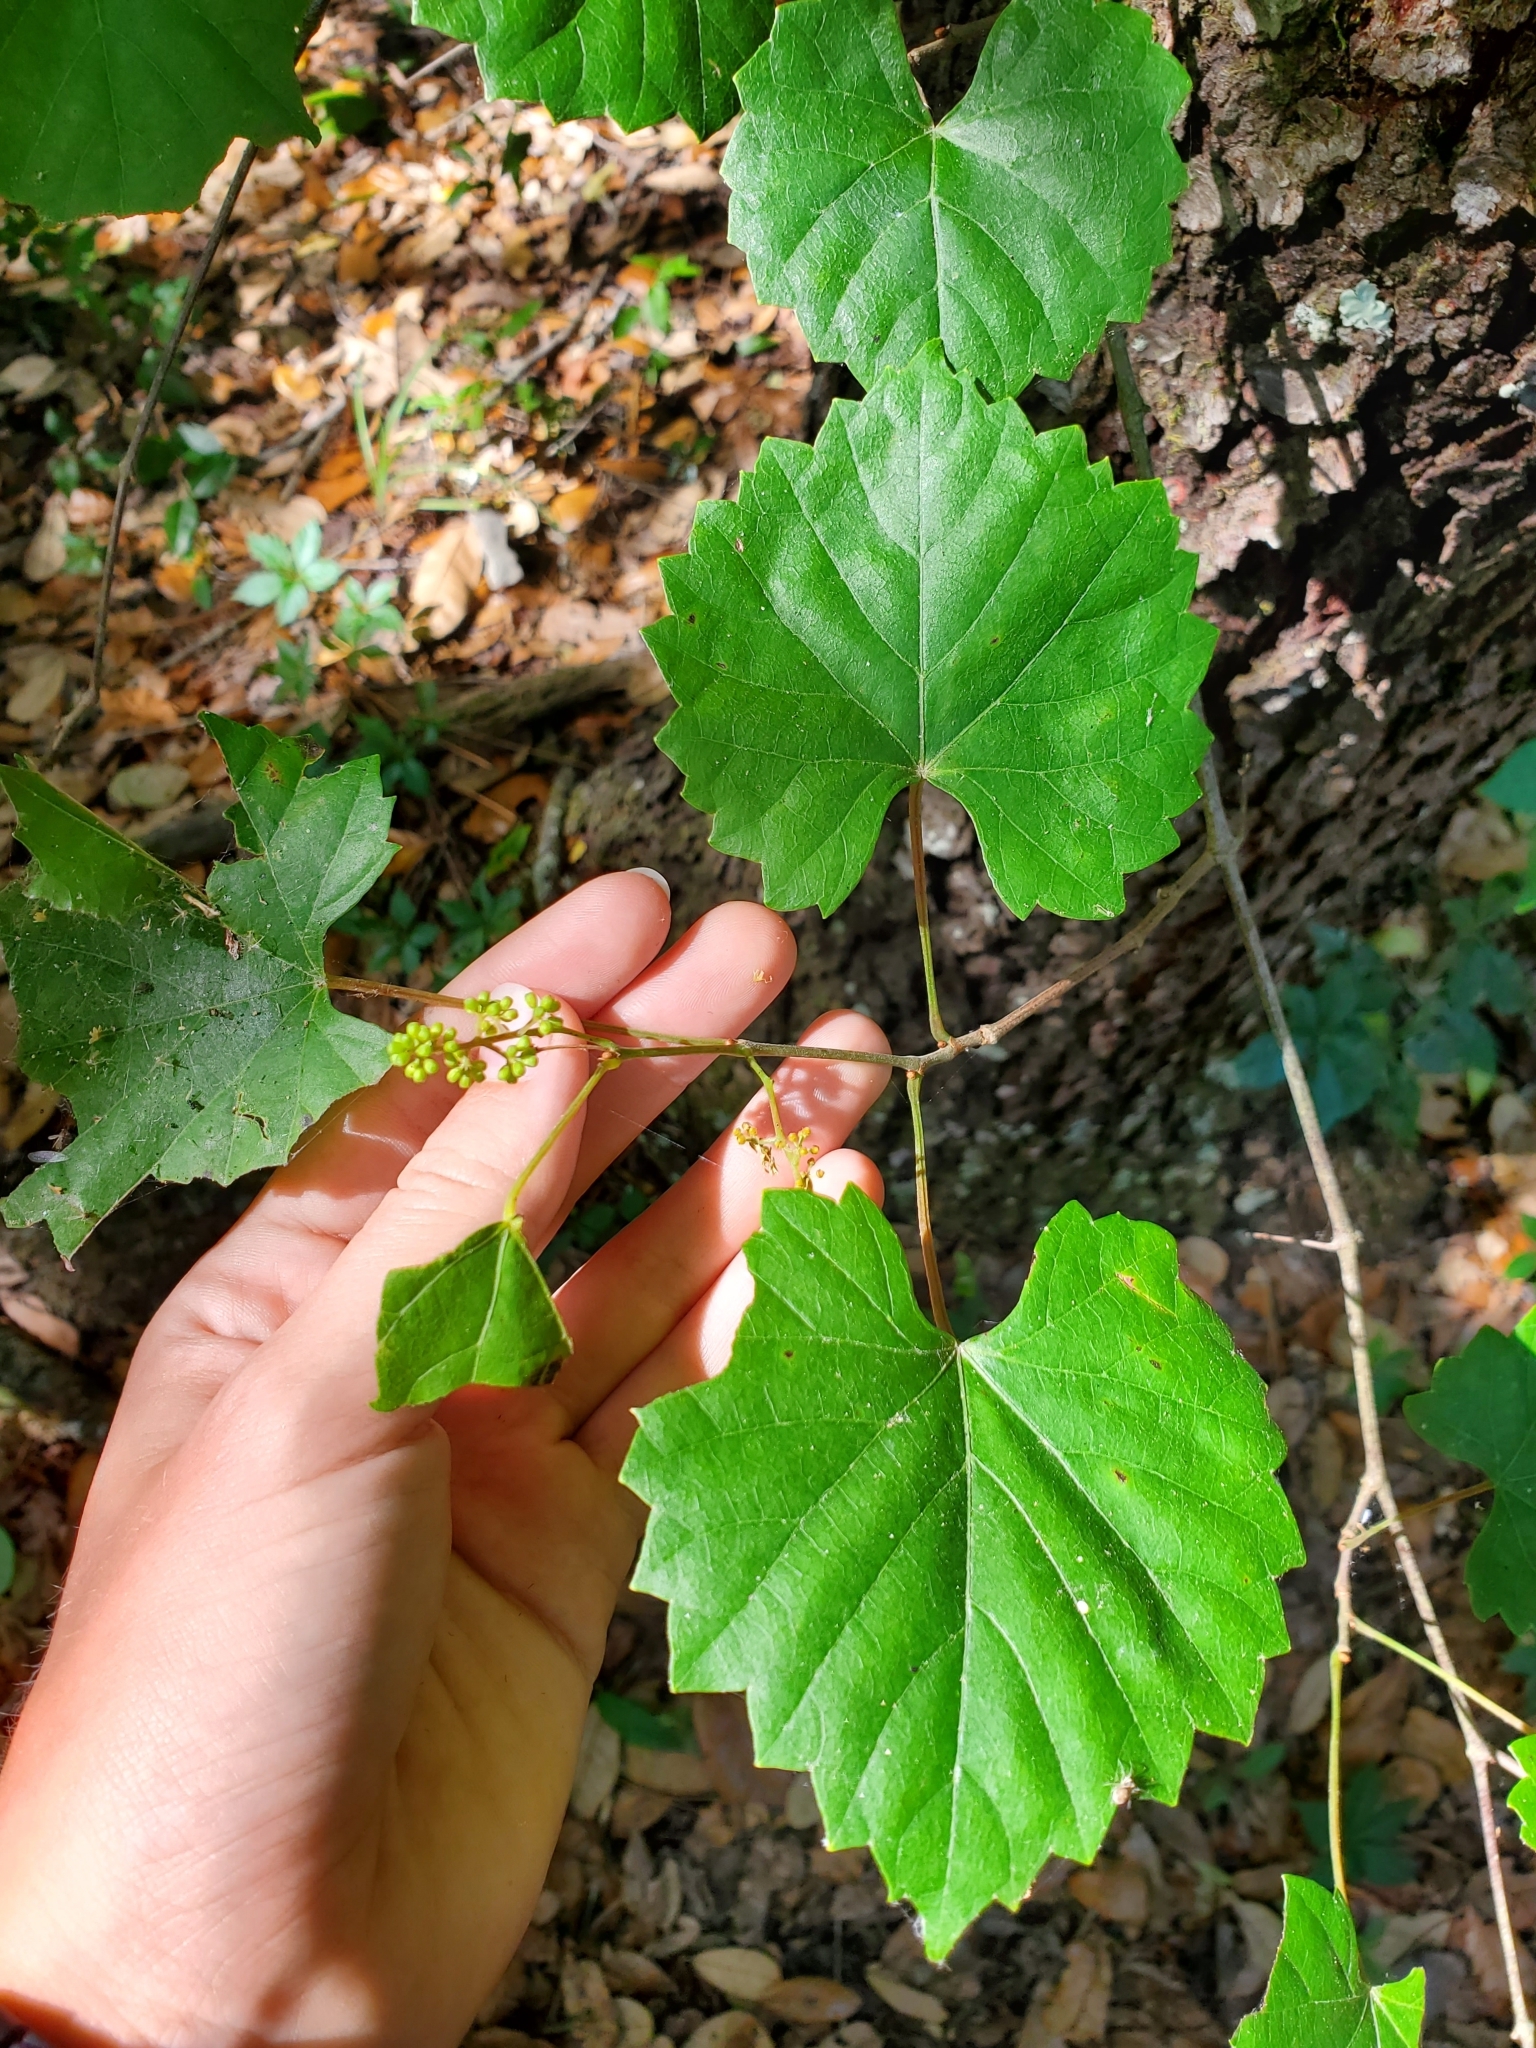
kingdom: Plantae
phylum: Tracheophyta
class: Magnoliopsida
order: Vitales
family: Vitaceae
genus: Vitis
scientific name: Vitis rotundifolia
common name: Muscadine grape
